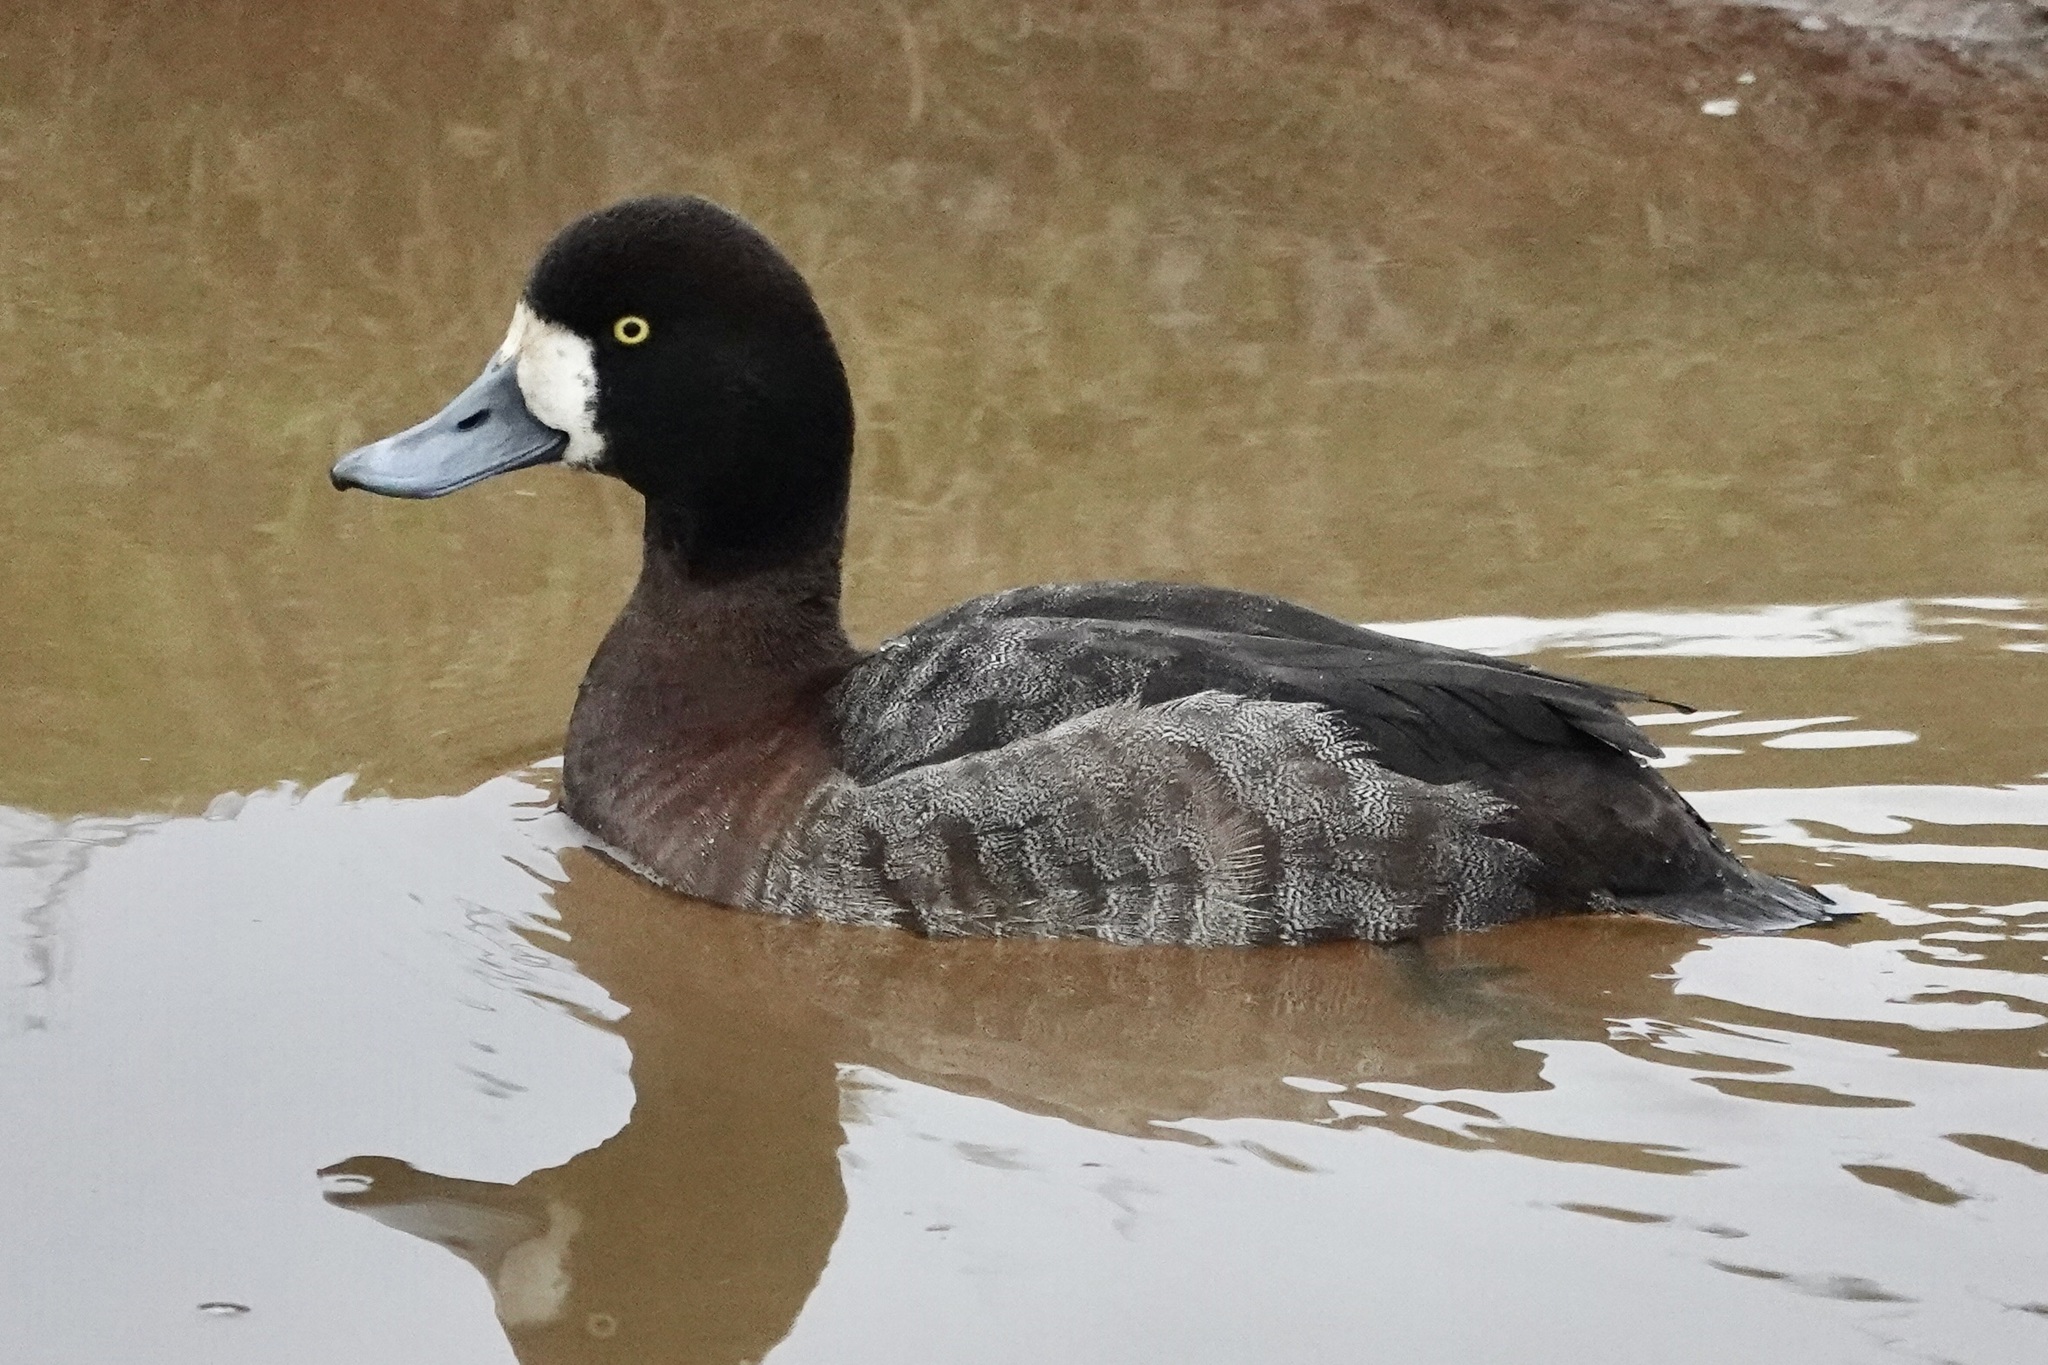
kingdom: Animalia
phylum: Chordata
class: Aves
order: Anseriformes
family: Anatidae
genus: Aythya
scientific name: Aythya marila
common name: Greater scaup
